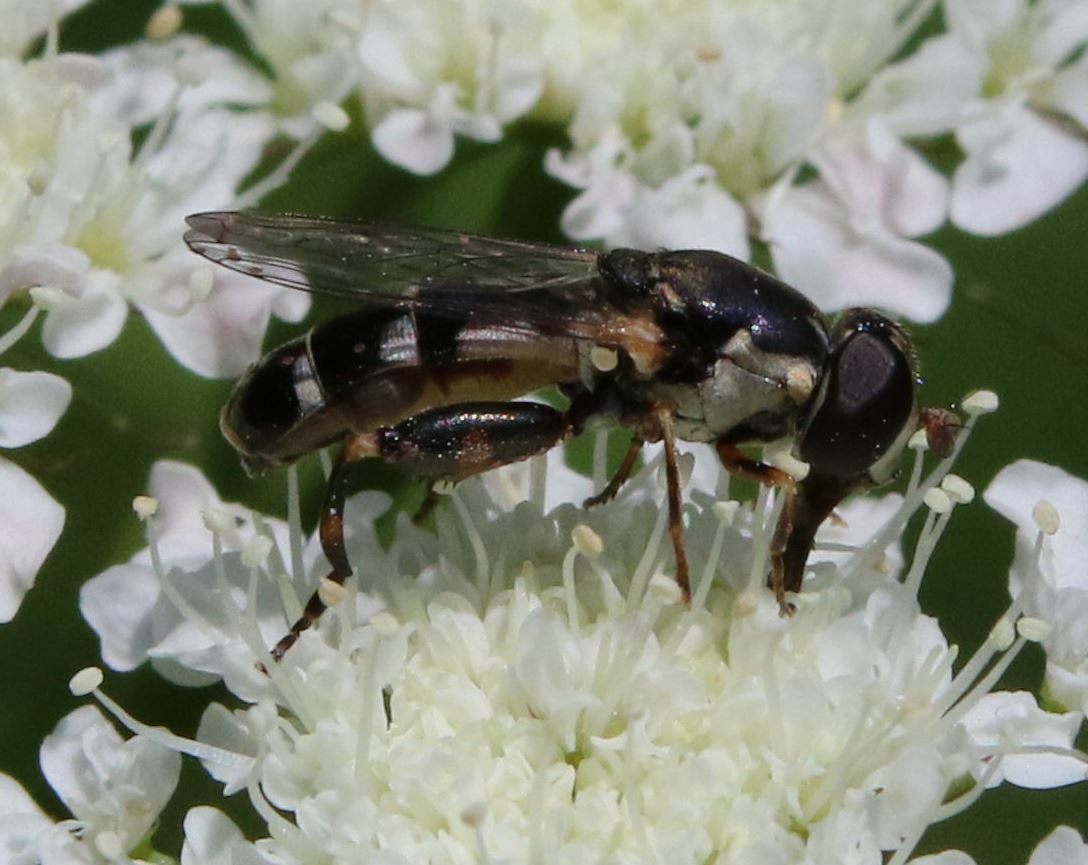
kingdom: Animalia
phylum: Arthropoda
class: Insecta
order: Diptera
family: Syrphidae
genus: Syritta
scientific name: Syritta pipiens
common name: Hover fly
